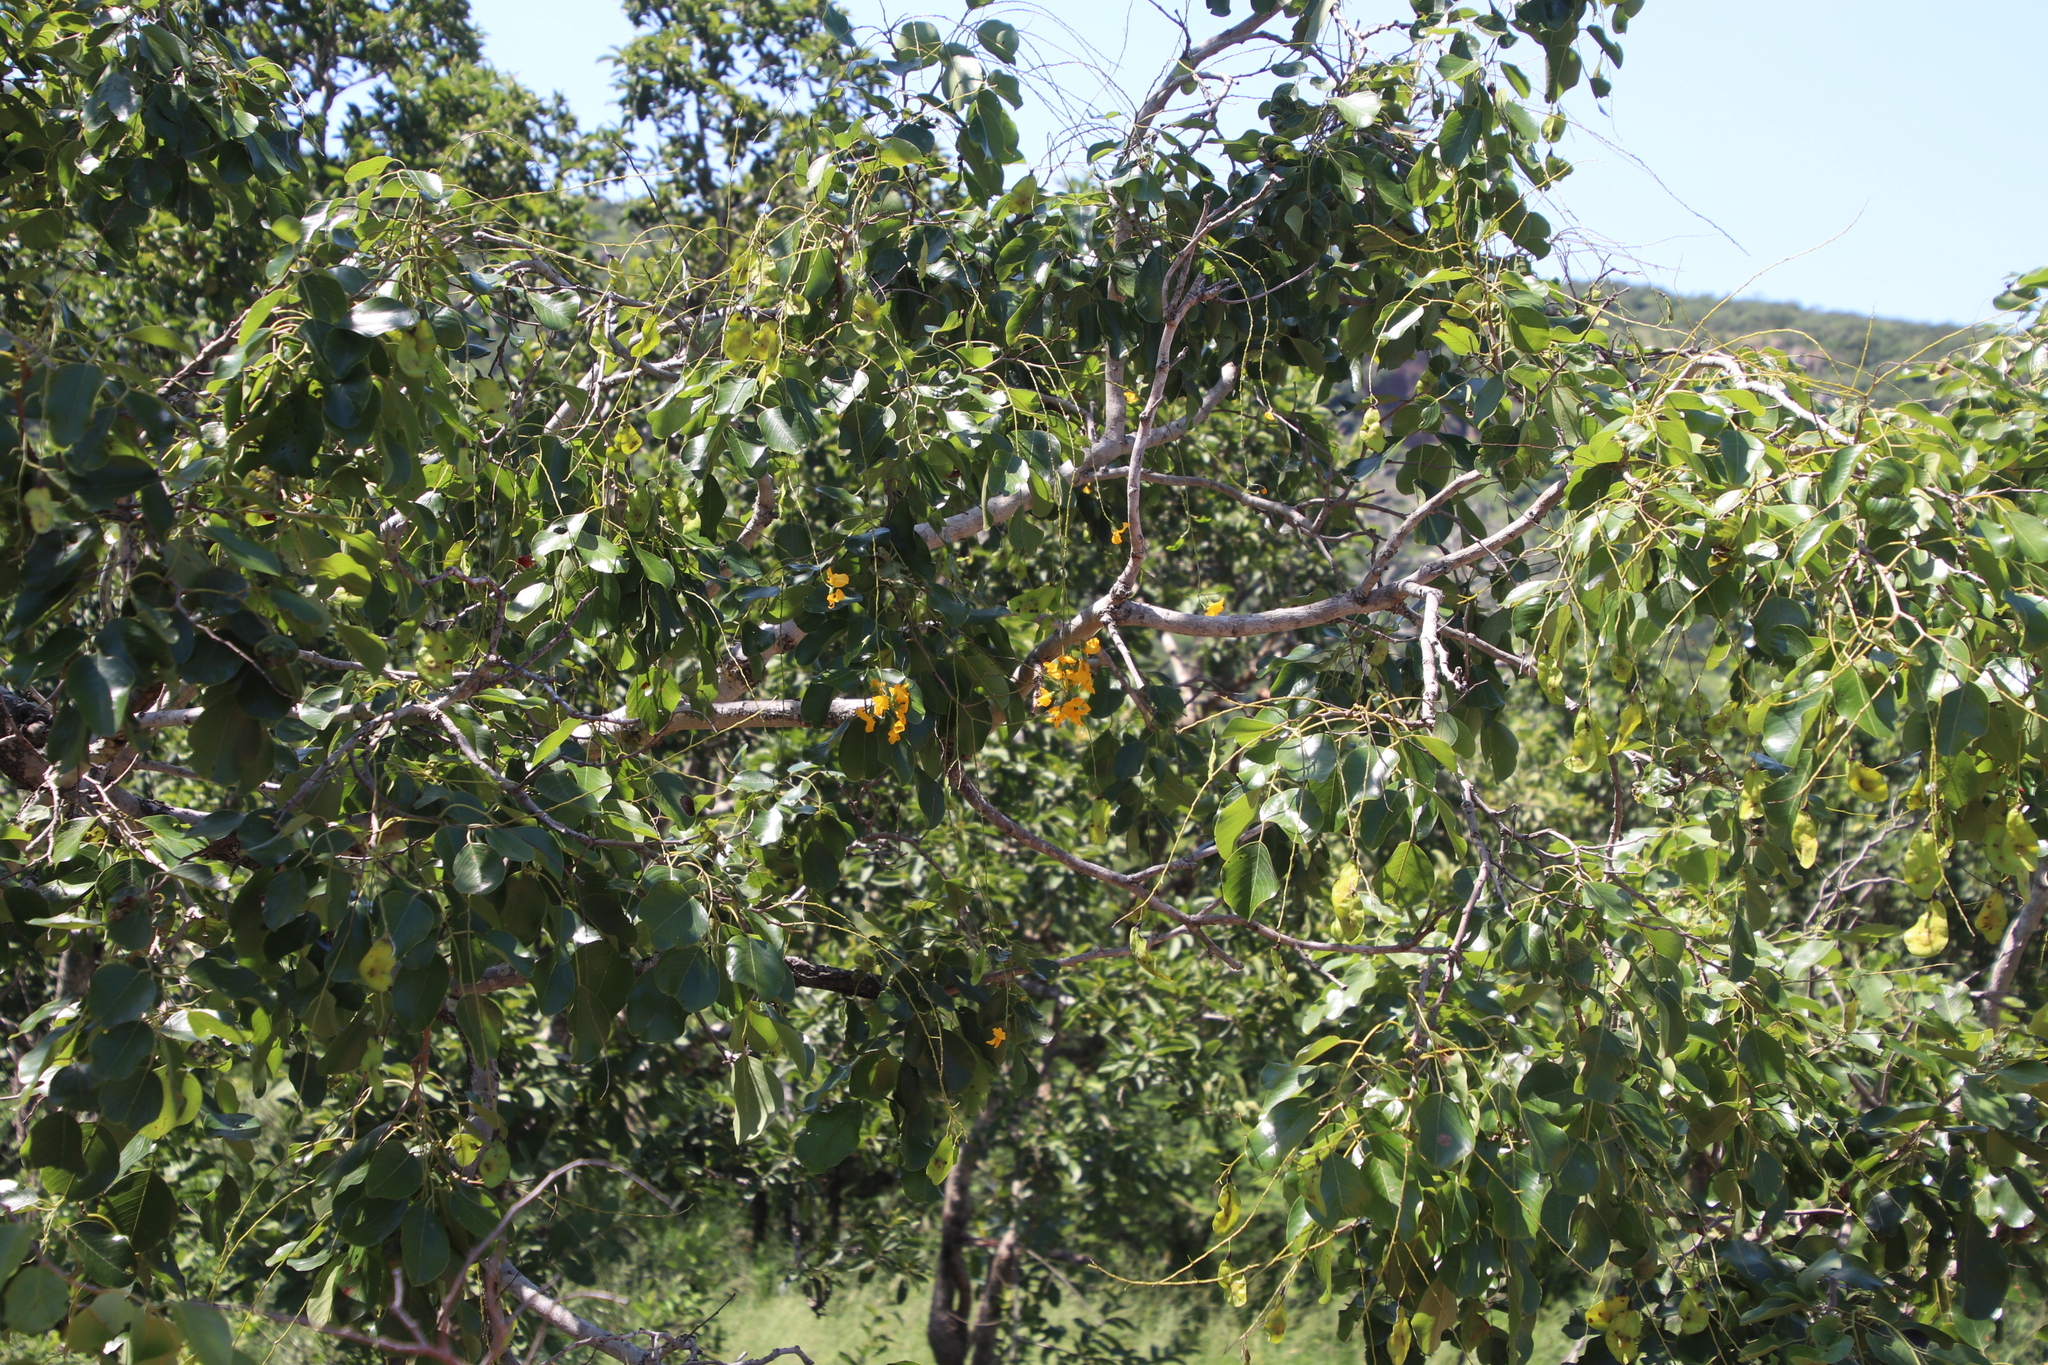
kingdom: Plantae
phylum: Tracheophyta
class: Magnoliopsida
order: Fabales
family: Fabaceae
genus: Pterocarpus
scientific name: Pterocarpus rotundifolius
